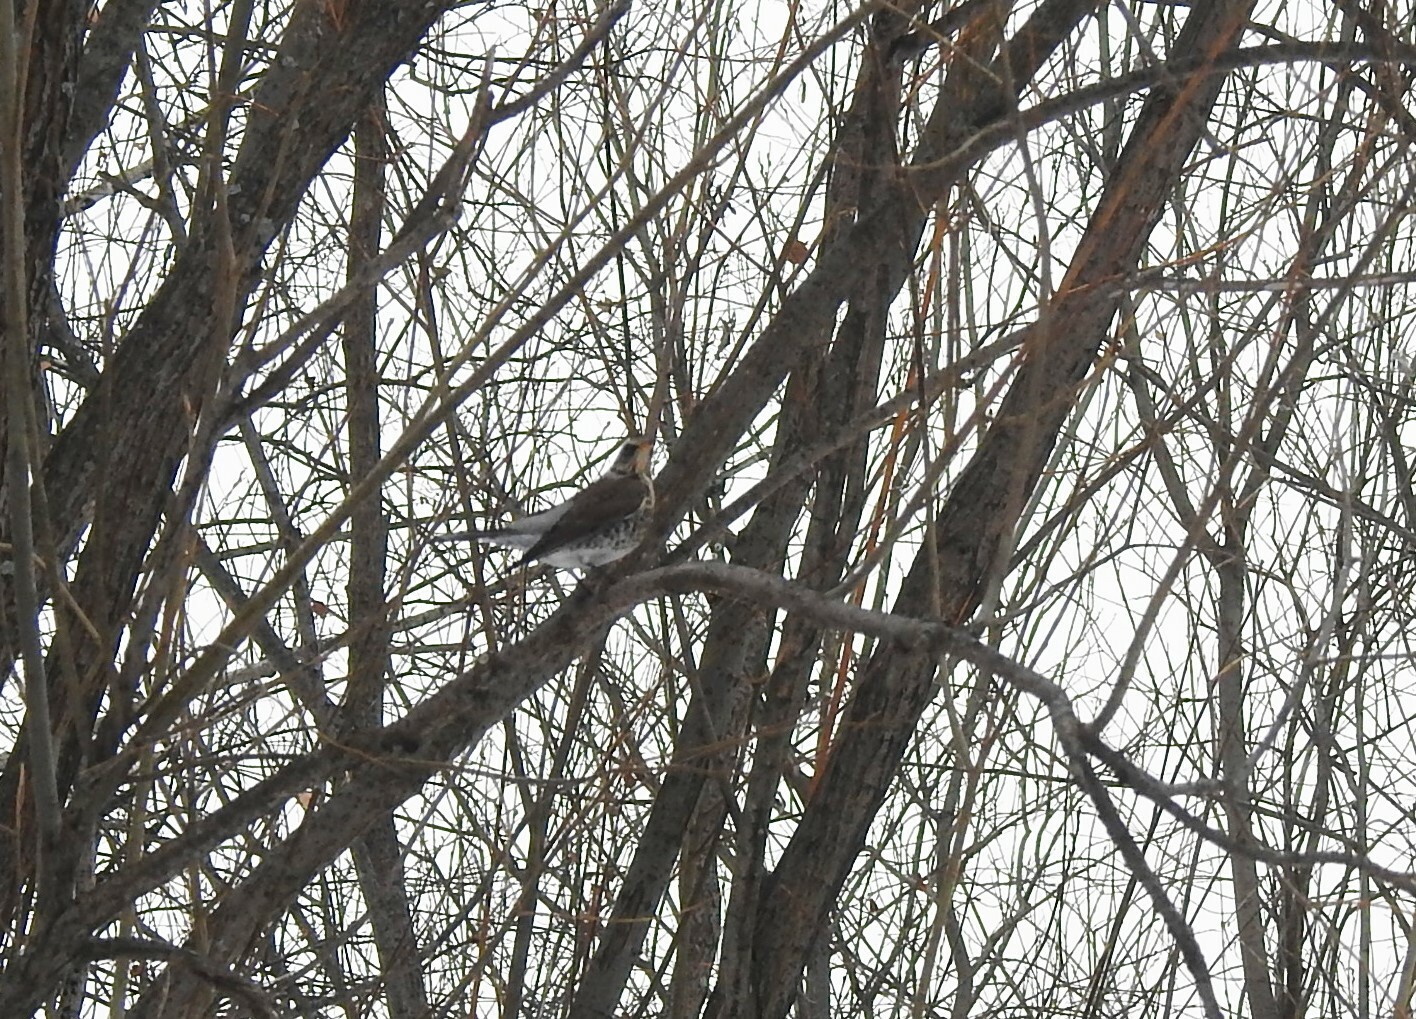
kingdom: Animalia
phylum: Chordata
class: Aves
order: Passeriformes
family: Turdidae
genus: Turdus
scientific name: Turdus pilaris
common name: Fieldfare
